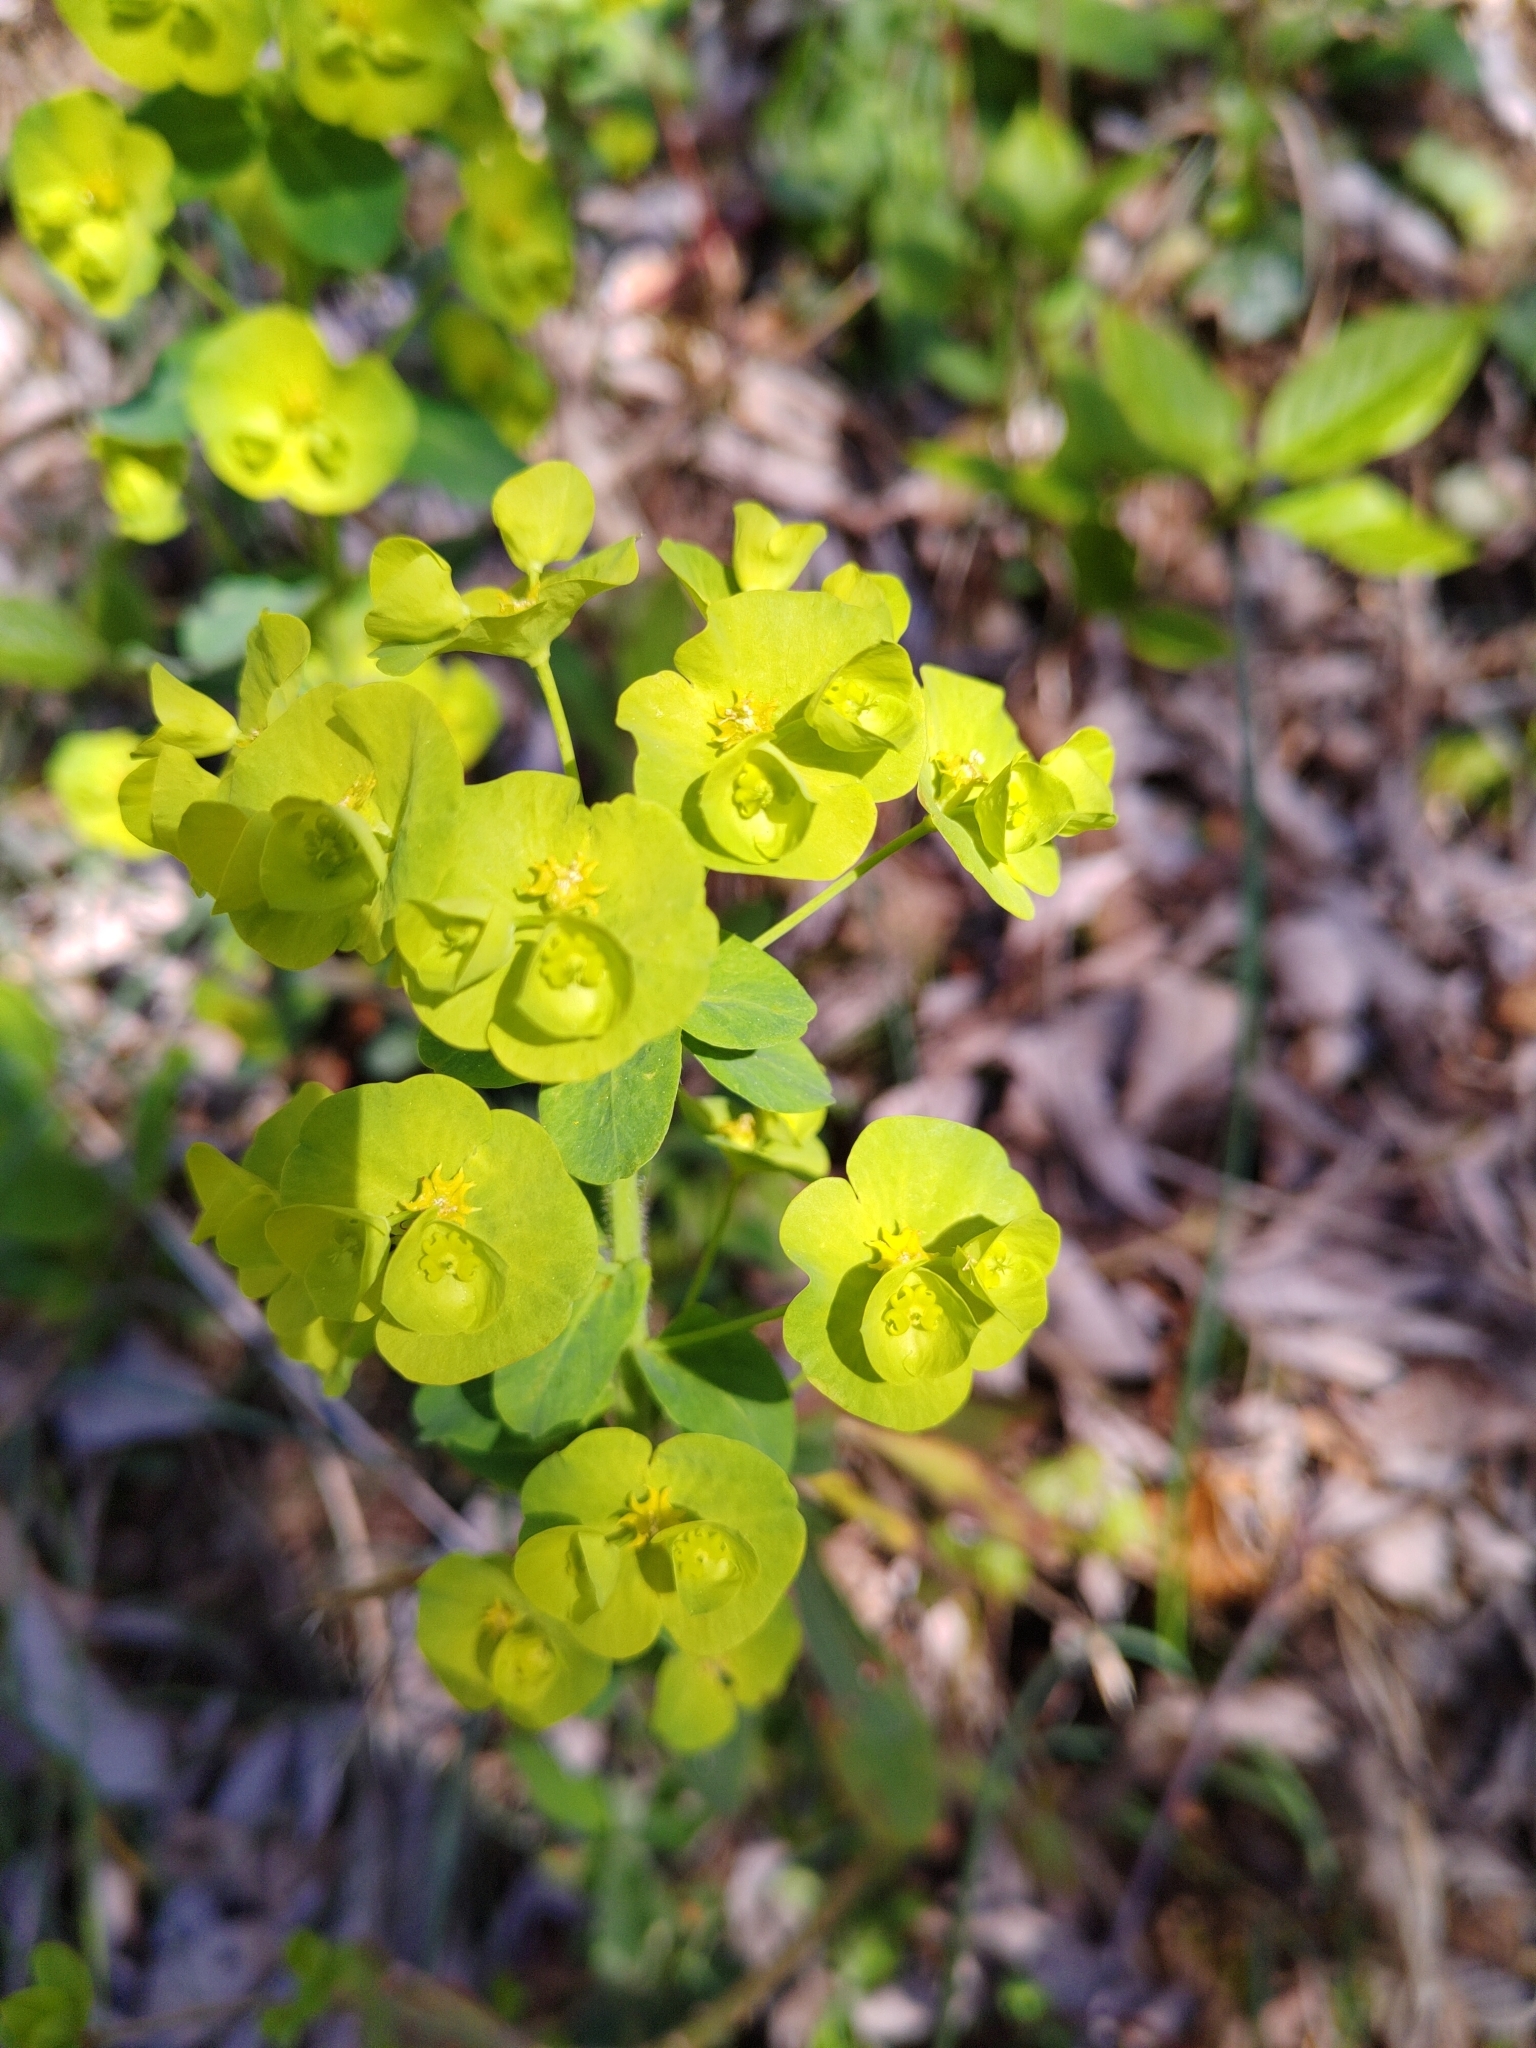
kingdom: Plantae
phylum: Tracheophyta
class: Magnoliopsida
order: Malpighiales
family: Euphorbiaceae
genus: Euphorbia
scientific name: Euphorbia amygdaloides
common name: Wood spurge
